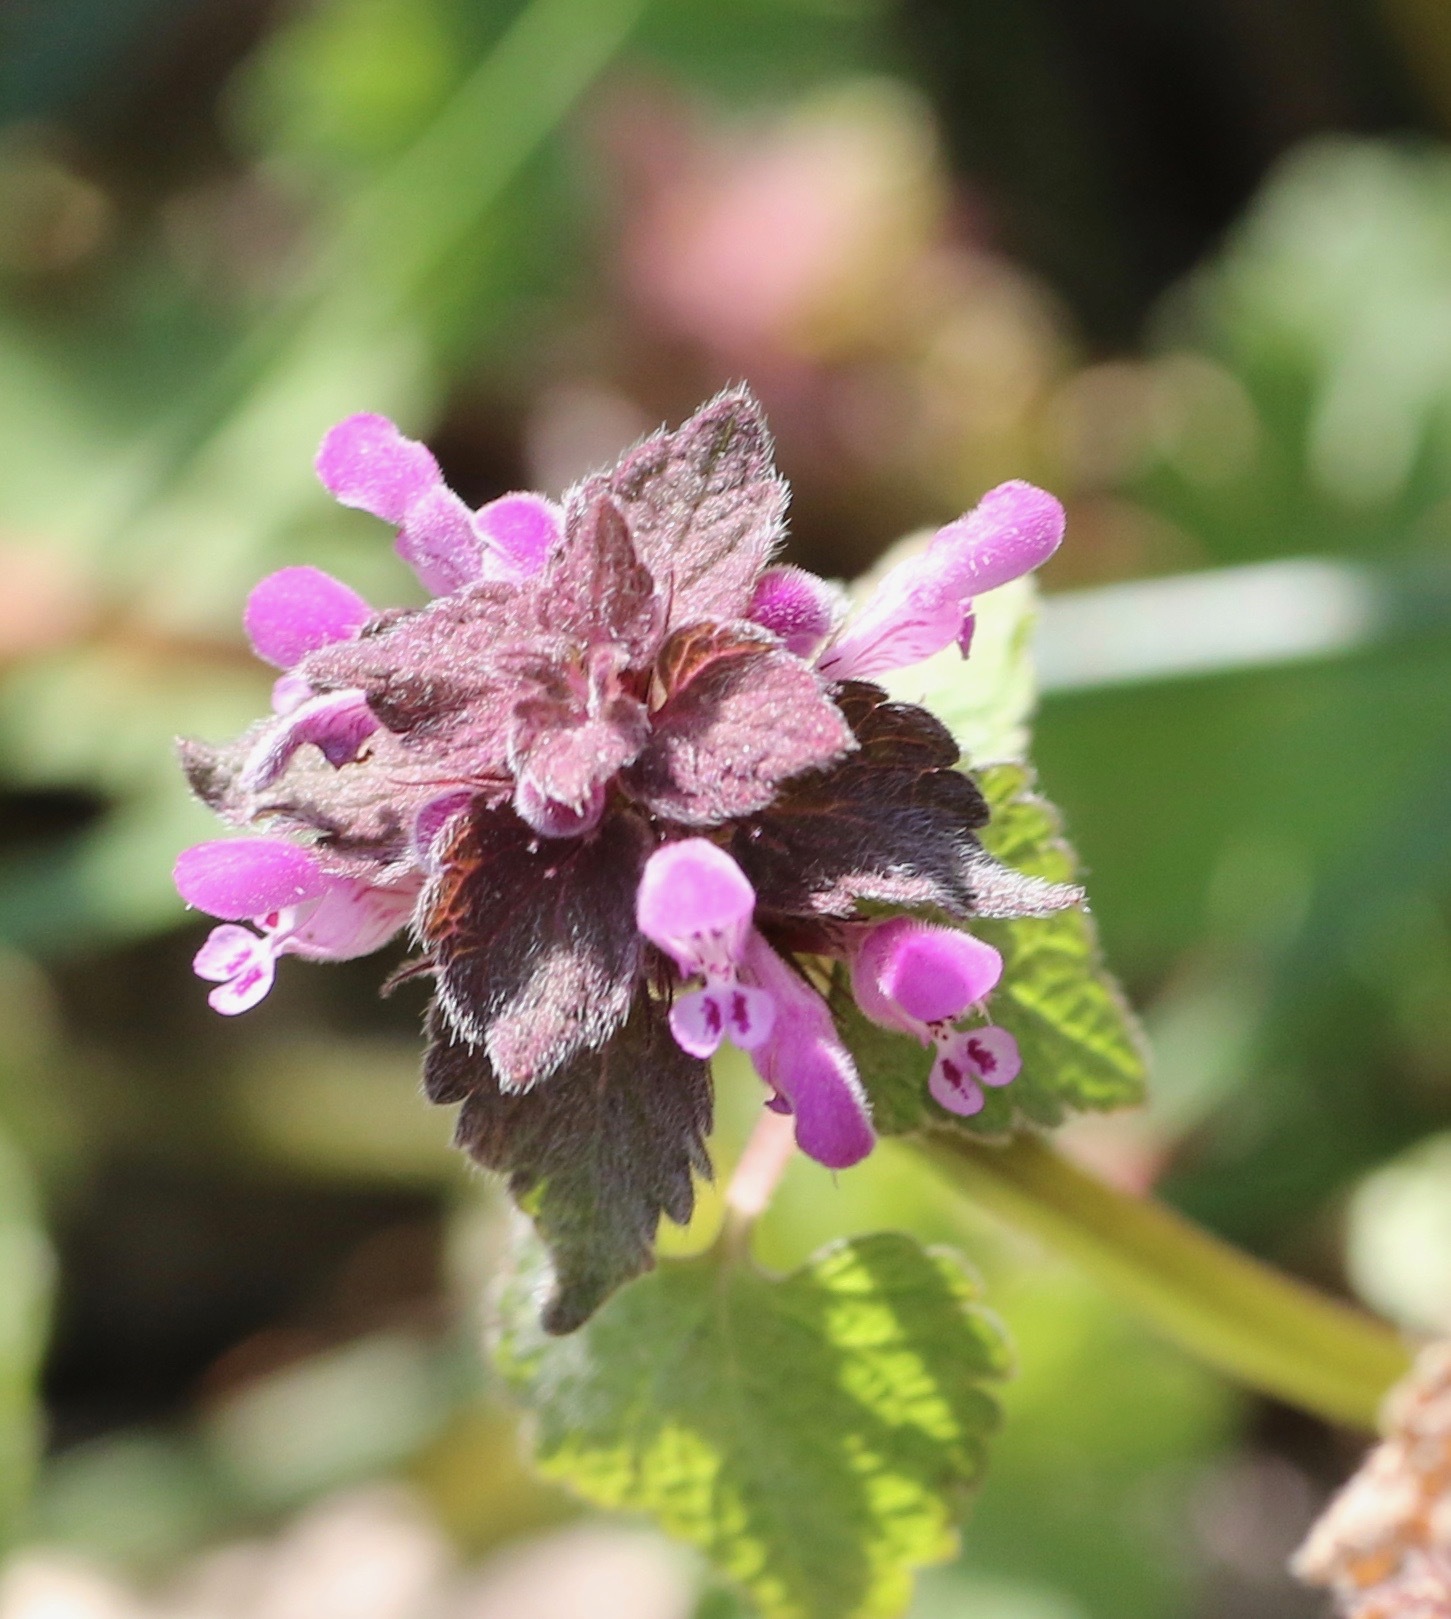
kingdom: Plantae
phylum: Tracheophyta
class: Magnoliopsida
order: Lamiales
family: Lamiaceae
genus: Lamium
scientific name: Lamium purpureum
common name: Red dead-nettle
